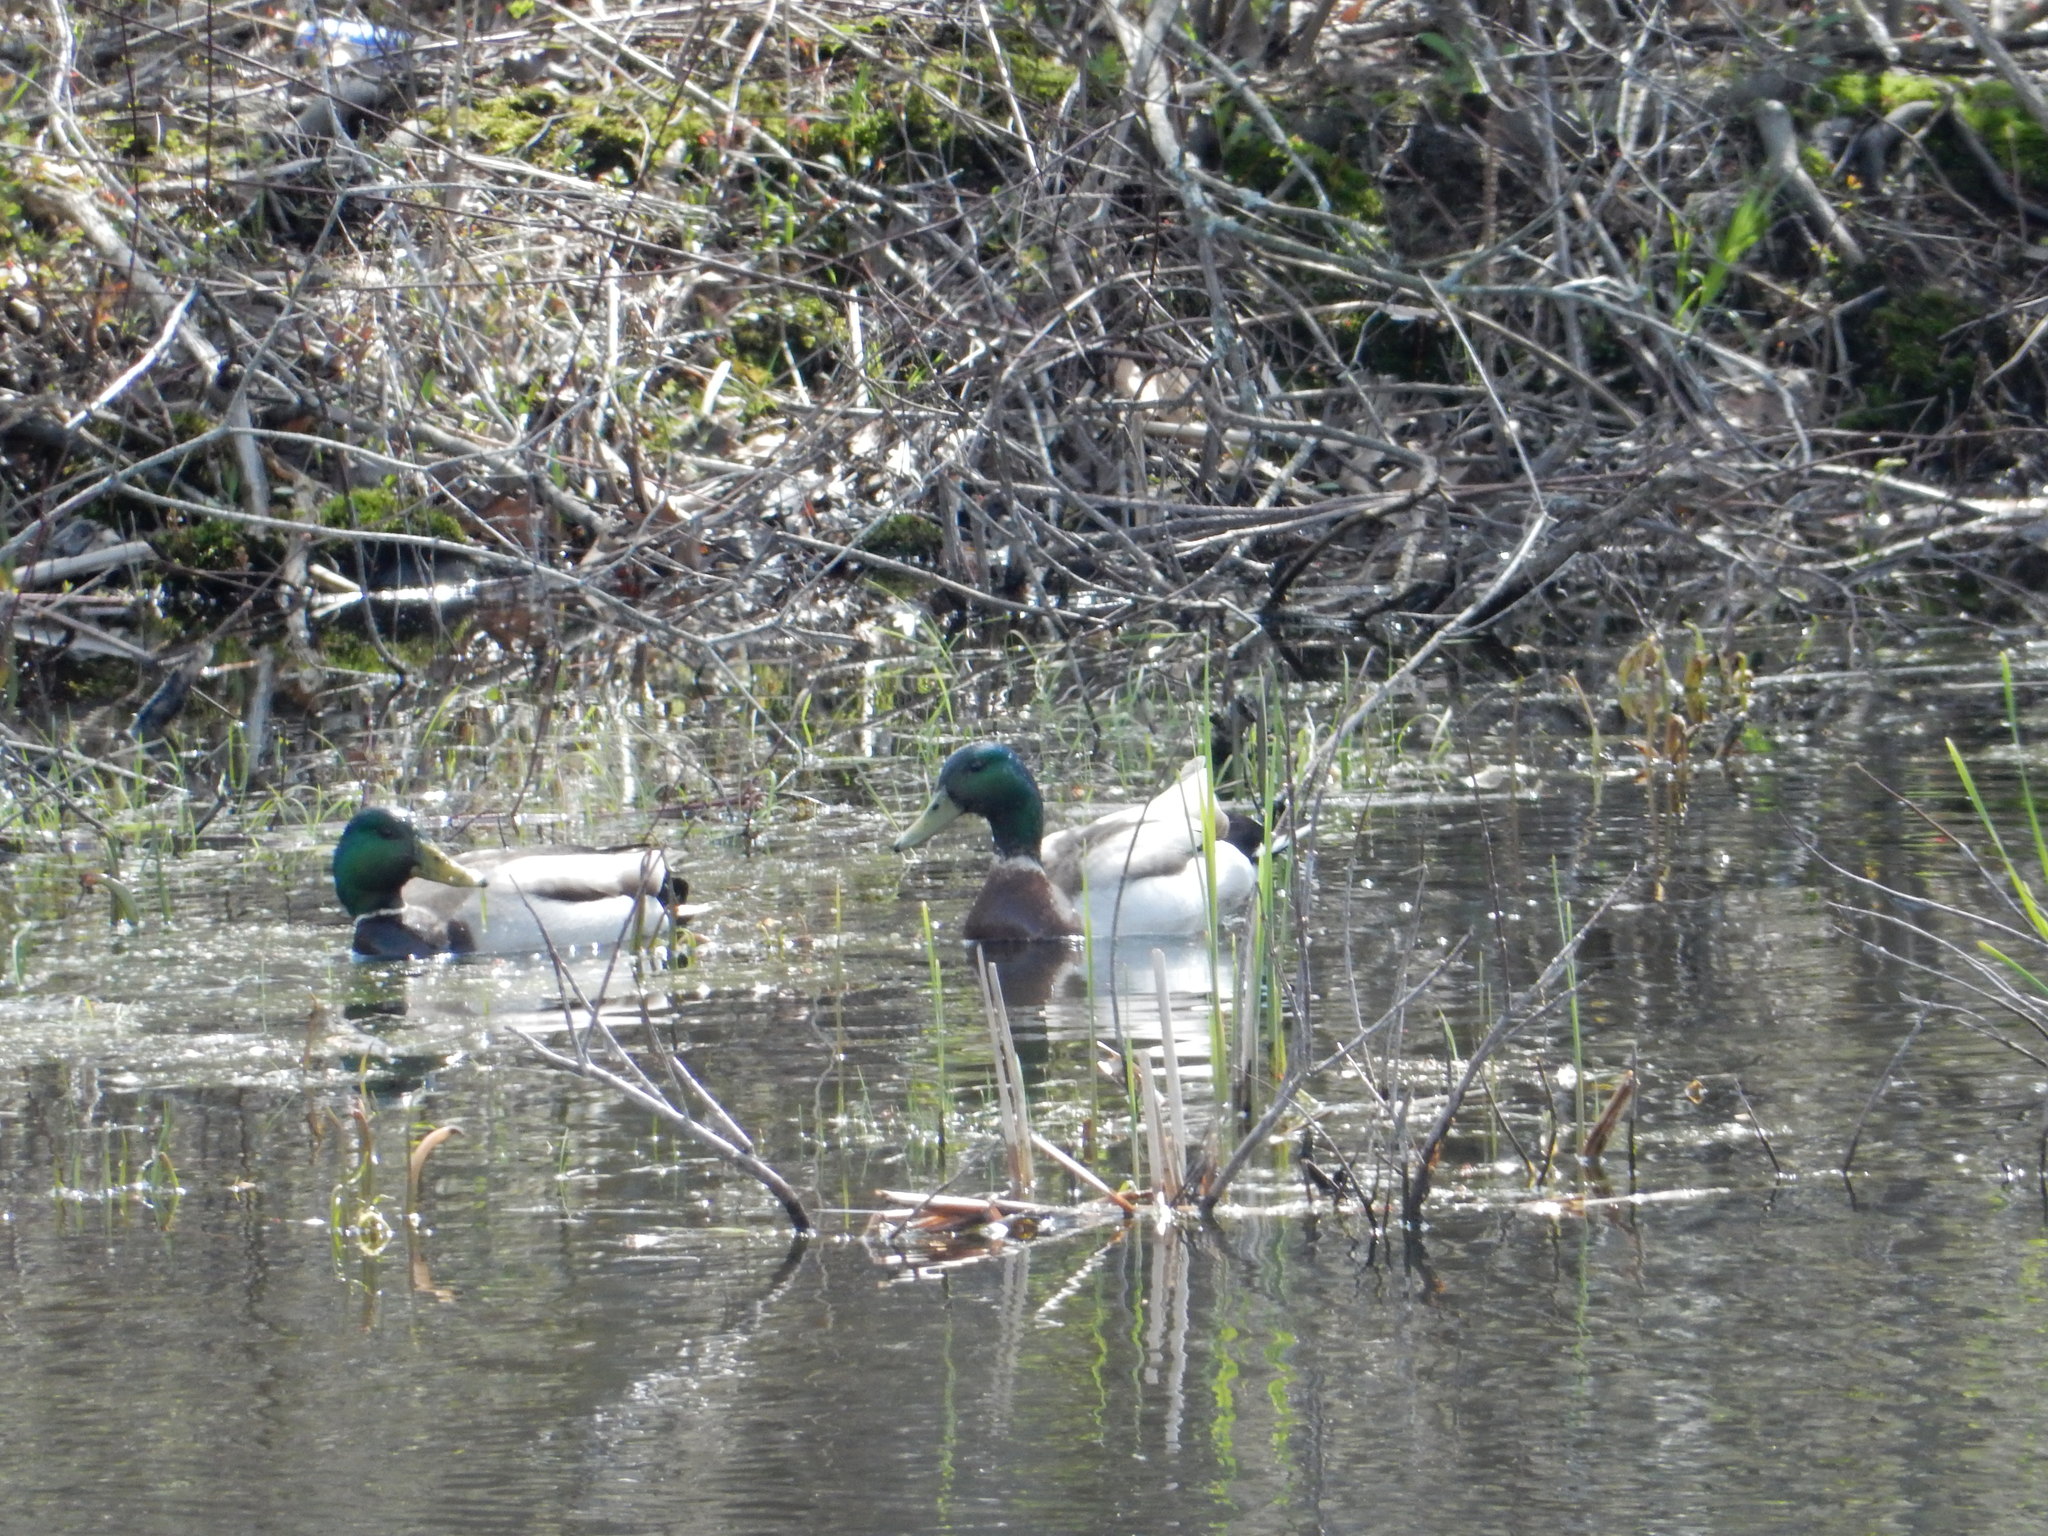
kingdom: Animalia
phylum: Chordata
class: Aves
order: Anseriformes
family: Anatidae
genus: Anas
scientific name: Anas platyrhynchos
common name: Mallard
